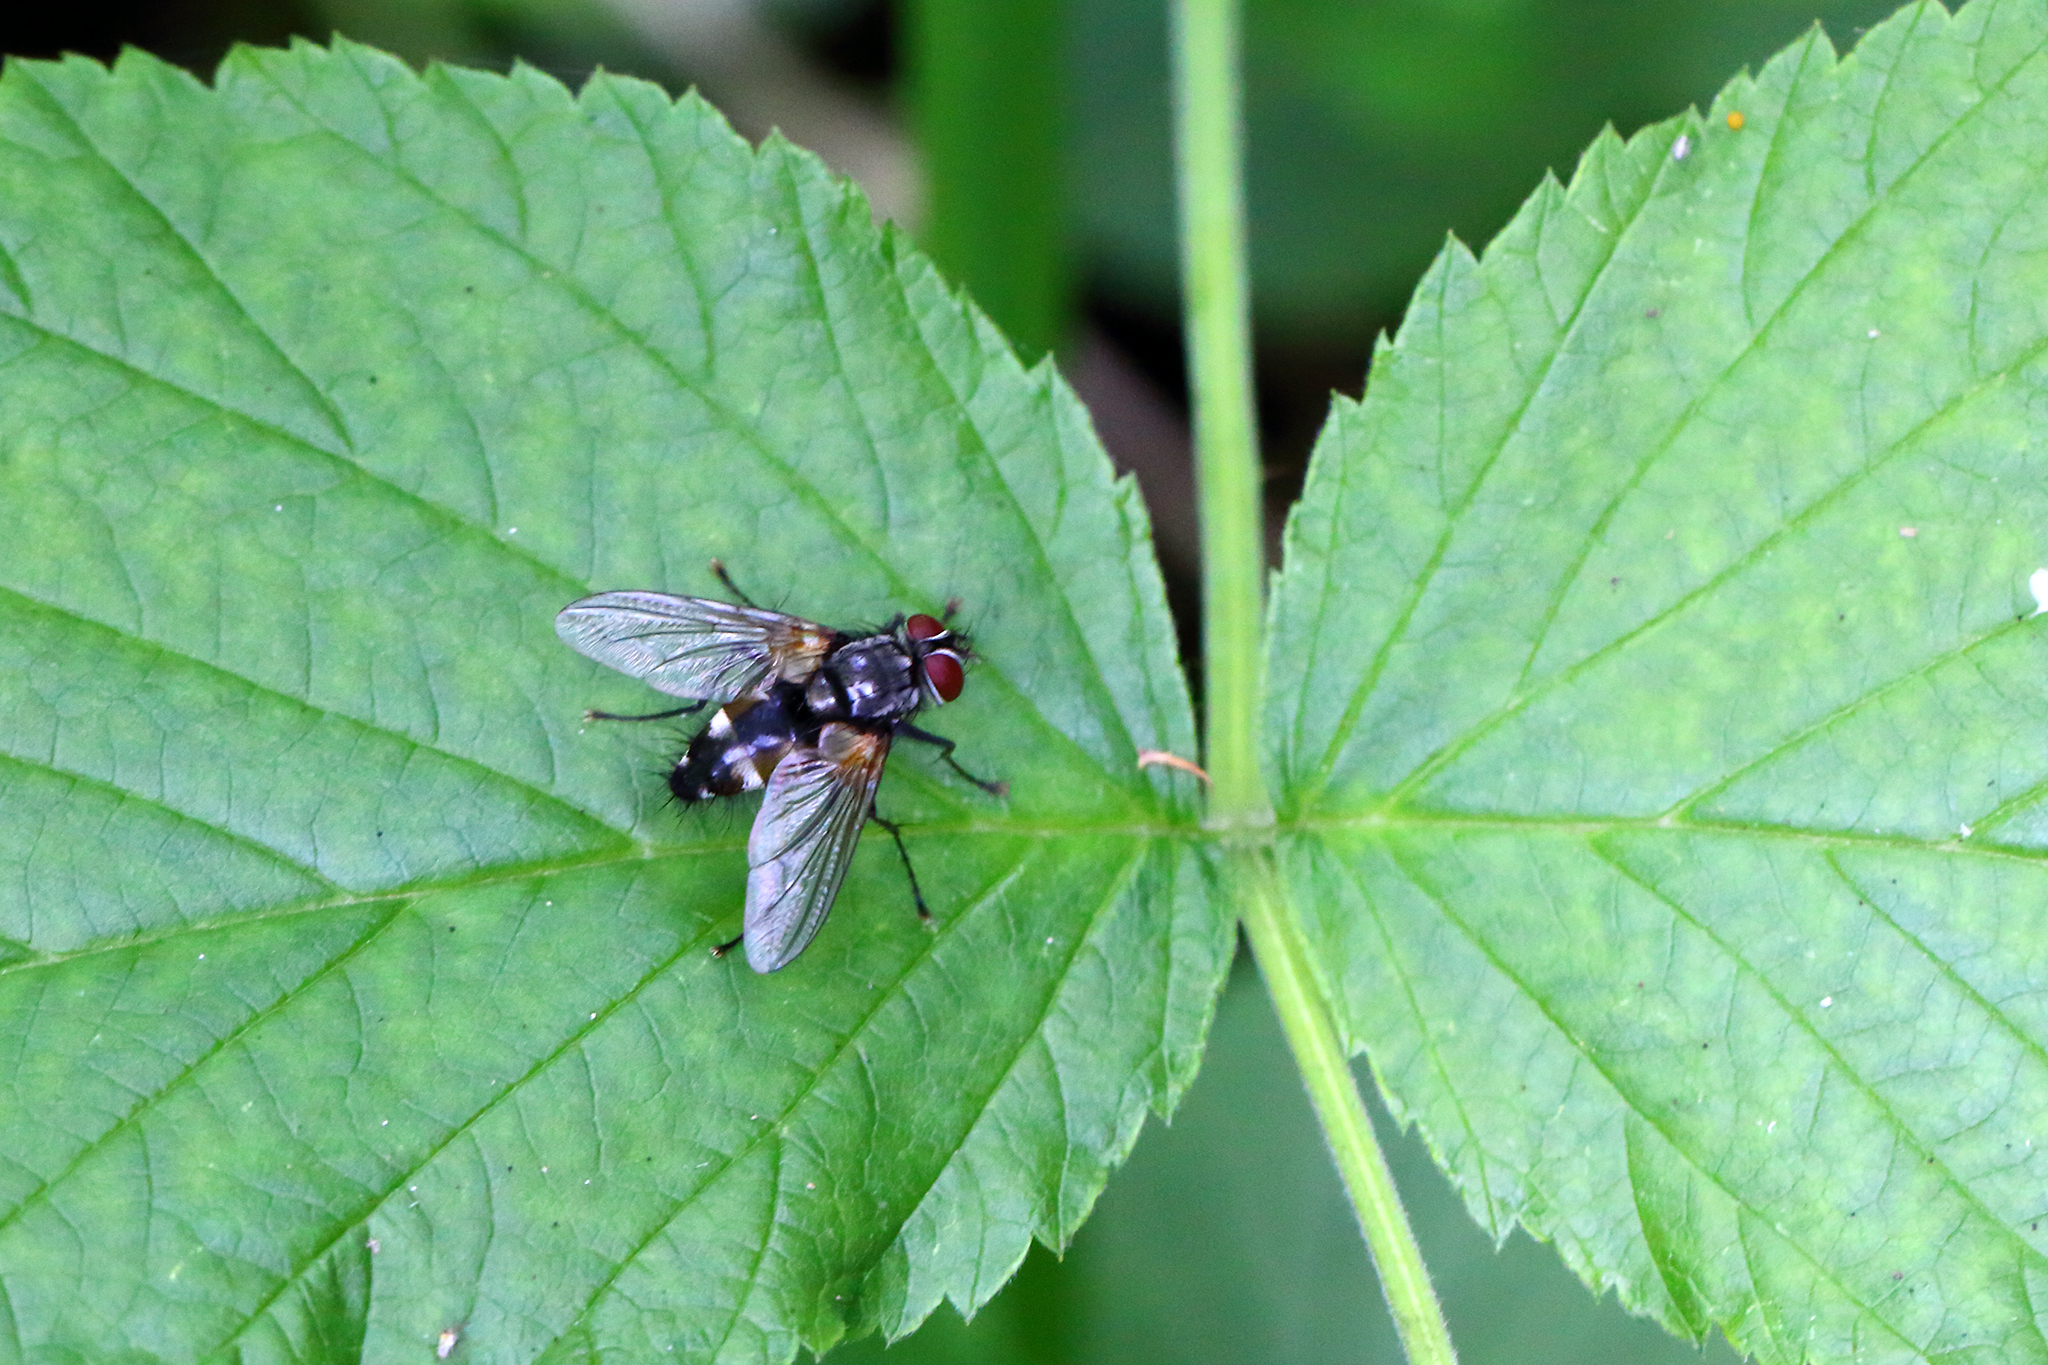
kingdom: Animalia
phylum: Arthropoda
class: Insecta
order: Diptera
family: Tachinidae
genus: Thelaira
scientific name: Thelaira nigripes
